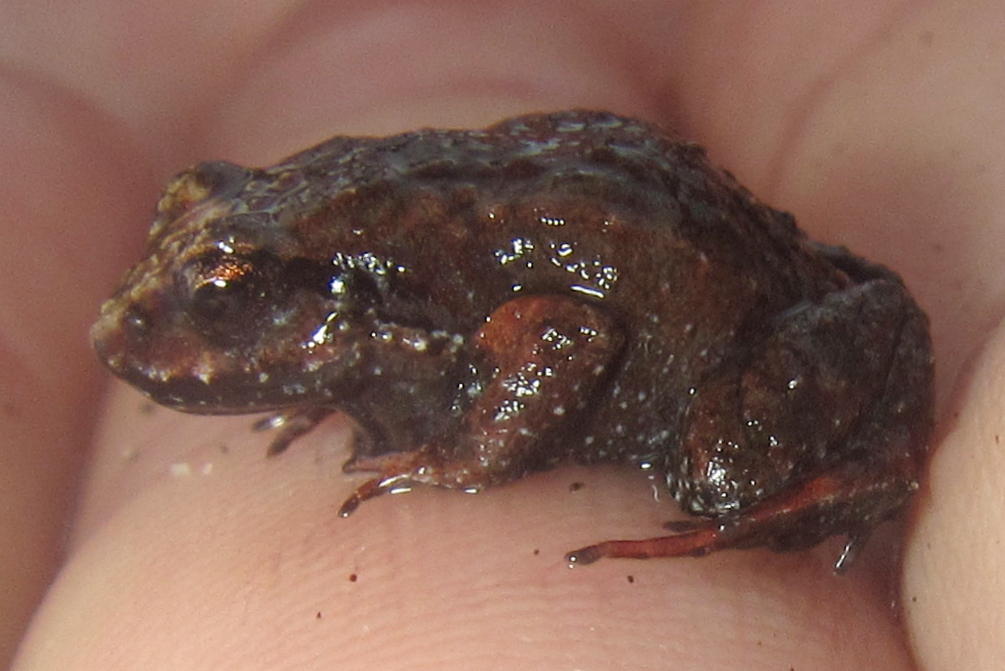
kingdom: Animalia
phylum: Chordata
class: Amphibia
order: Anura
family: Pyxicephalidae
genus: Arthroleptella
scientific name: Arthroleptella lightfooti
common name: Cape peninsula chirping frog
